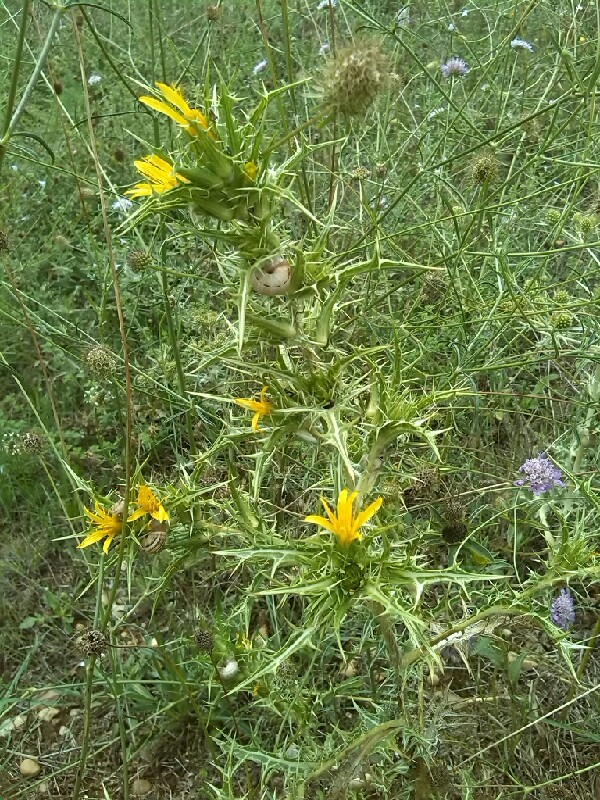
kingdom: Plantae
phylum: Tracheophyta
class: Magnoliopsida
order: Asterales
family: Asteraceae
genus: Scolymus
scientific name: Scolymus hispanicus
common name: Golden thistle
